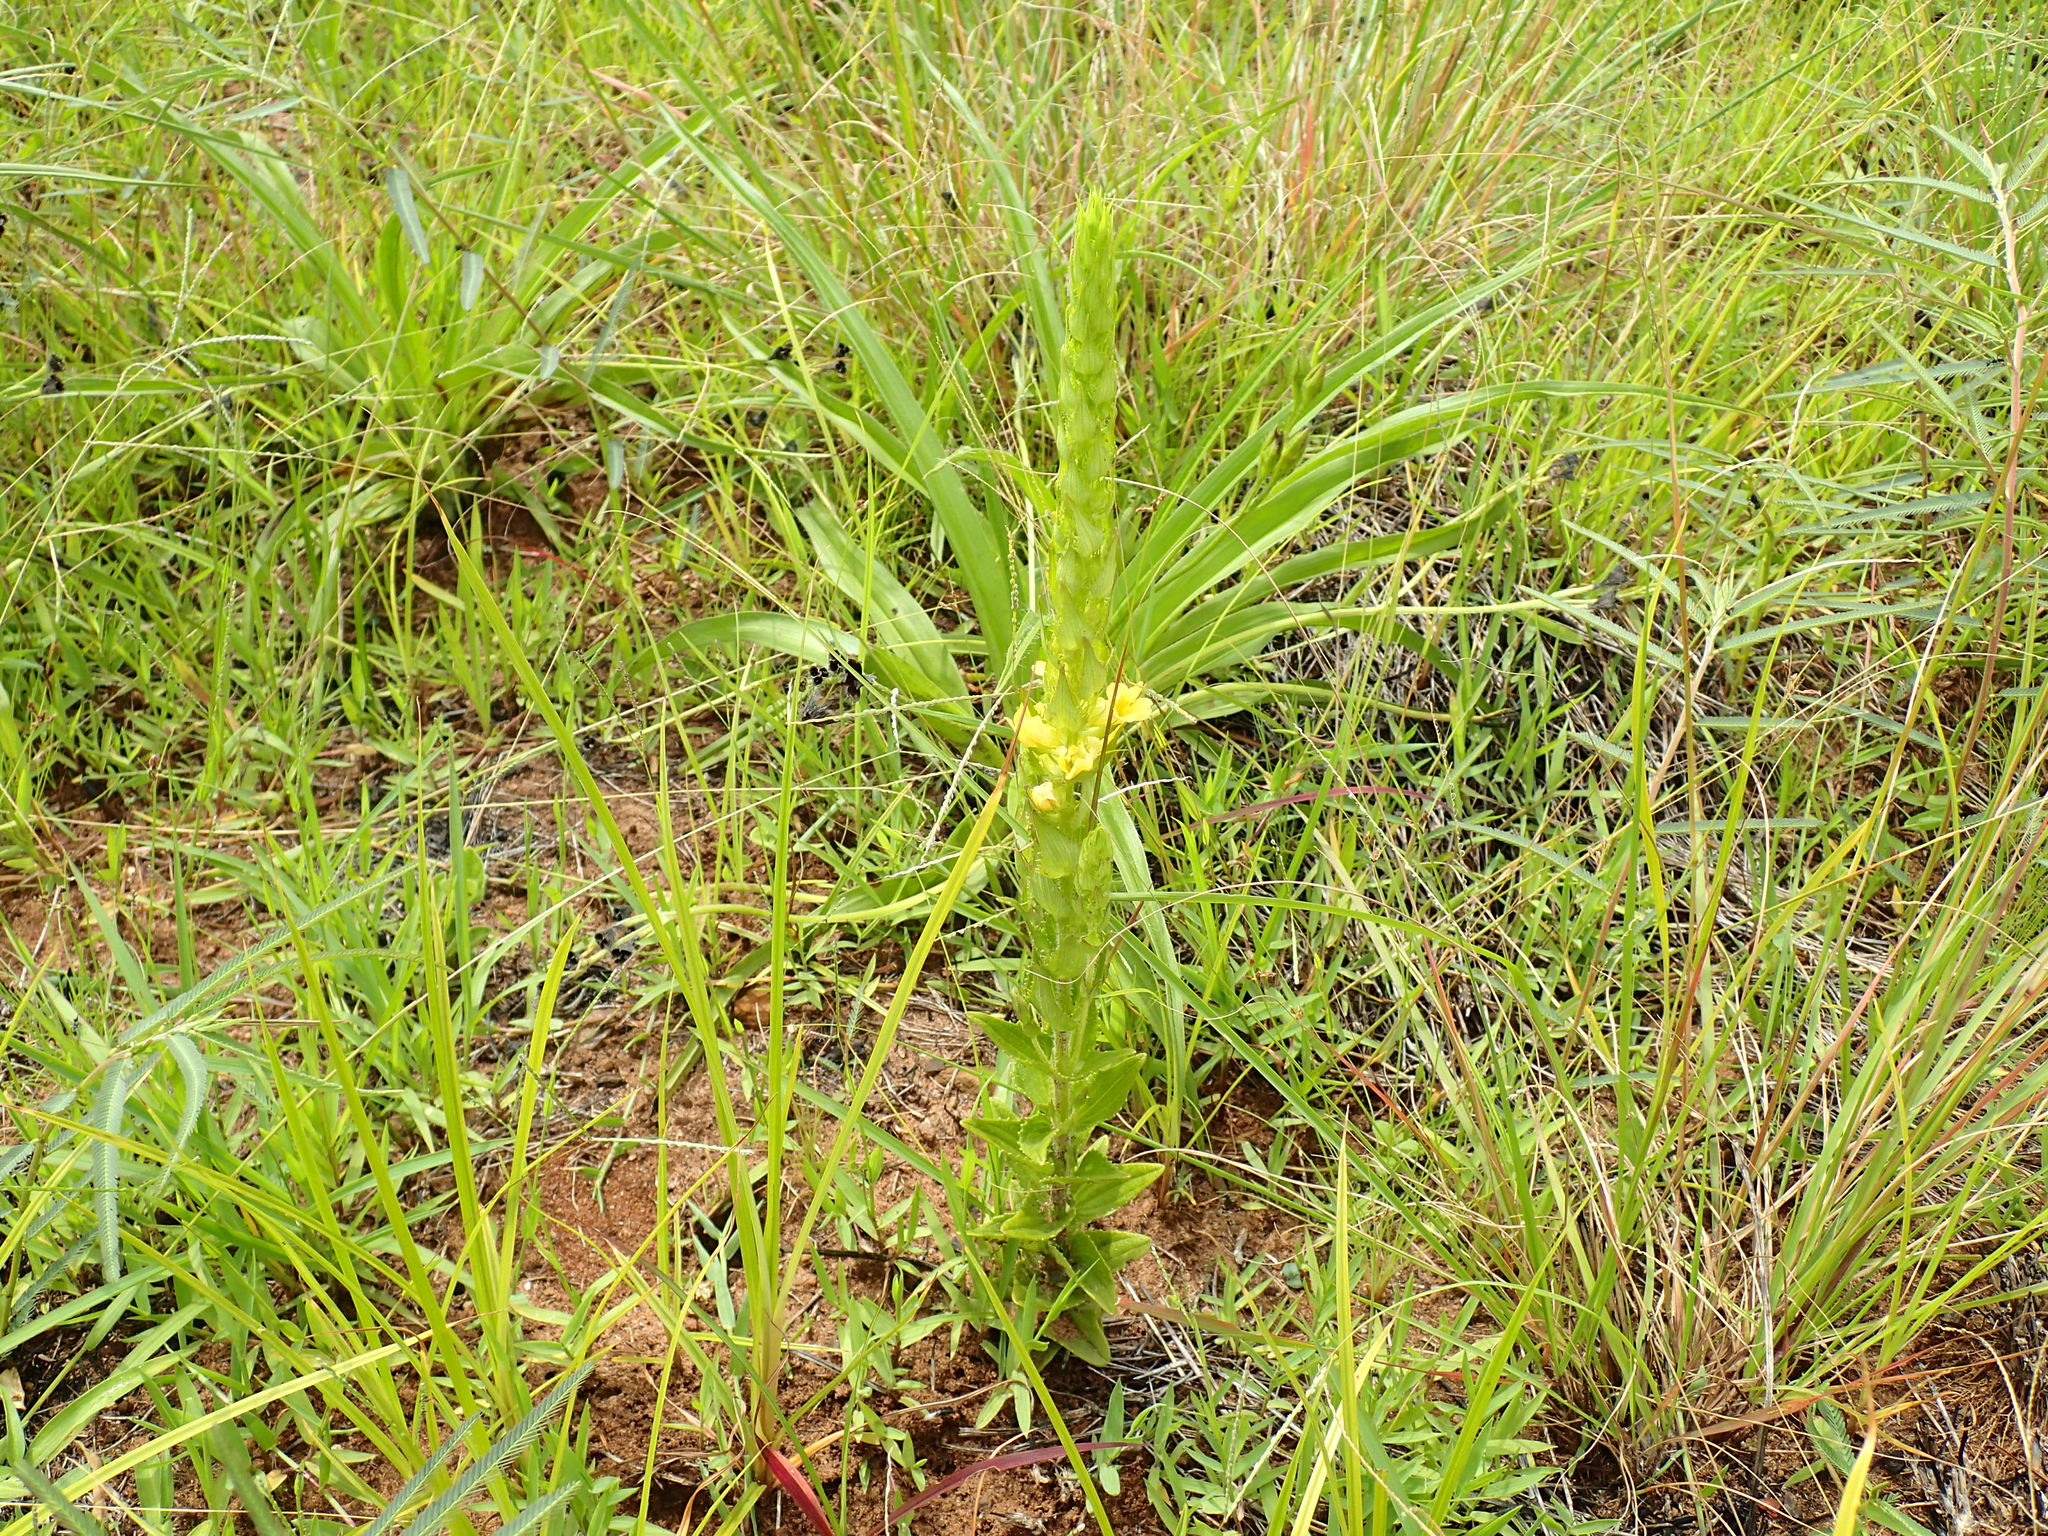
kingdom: Plantae
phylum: Tracheophyta
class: Magnoliopsida
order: Lamiales
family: Orobanchaceae
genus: Alectra
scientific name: Alectra sessiliflora
